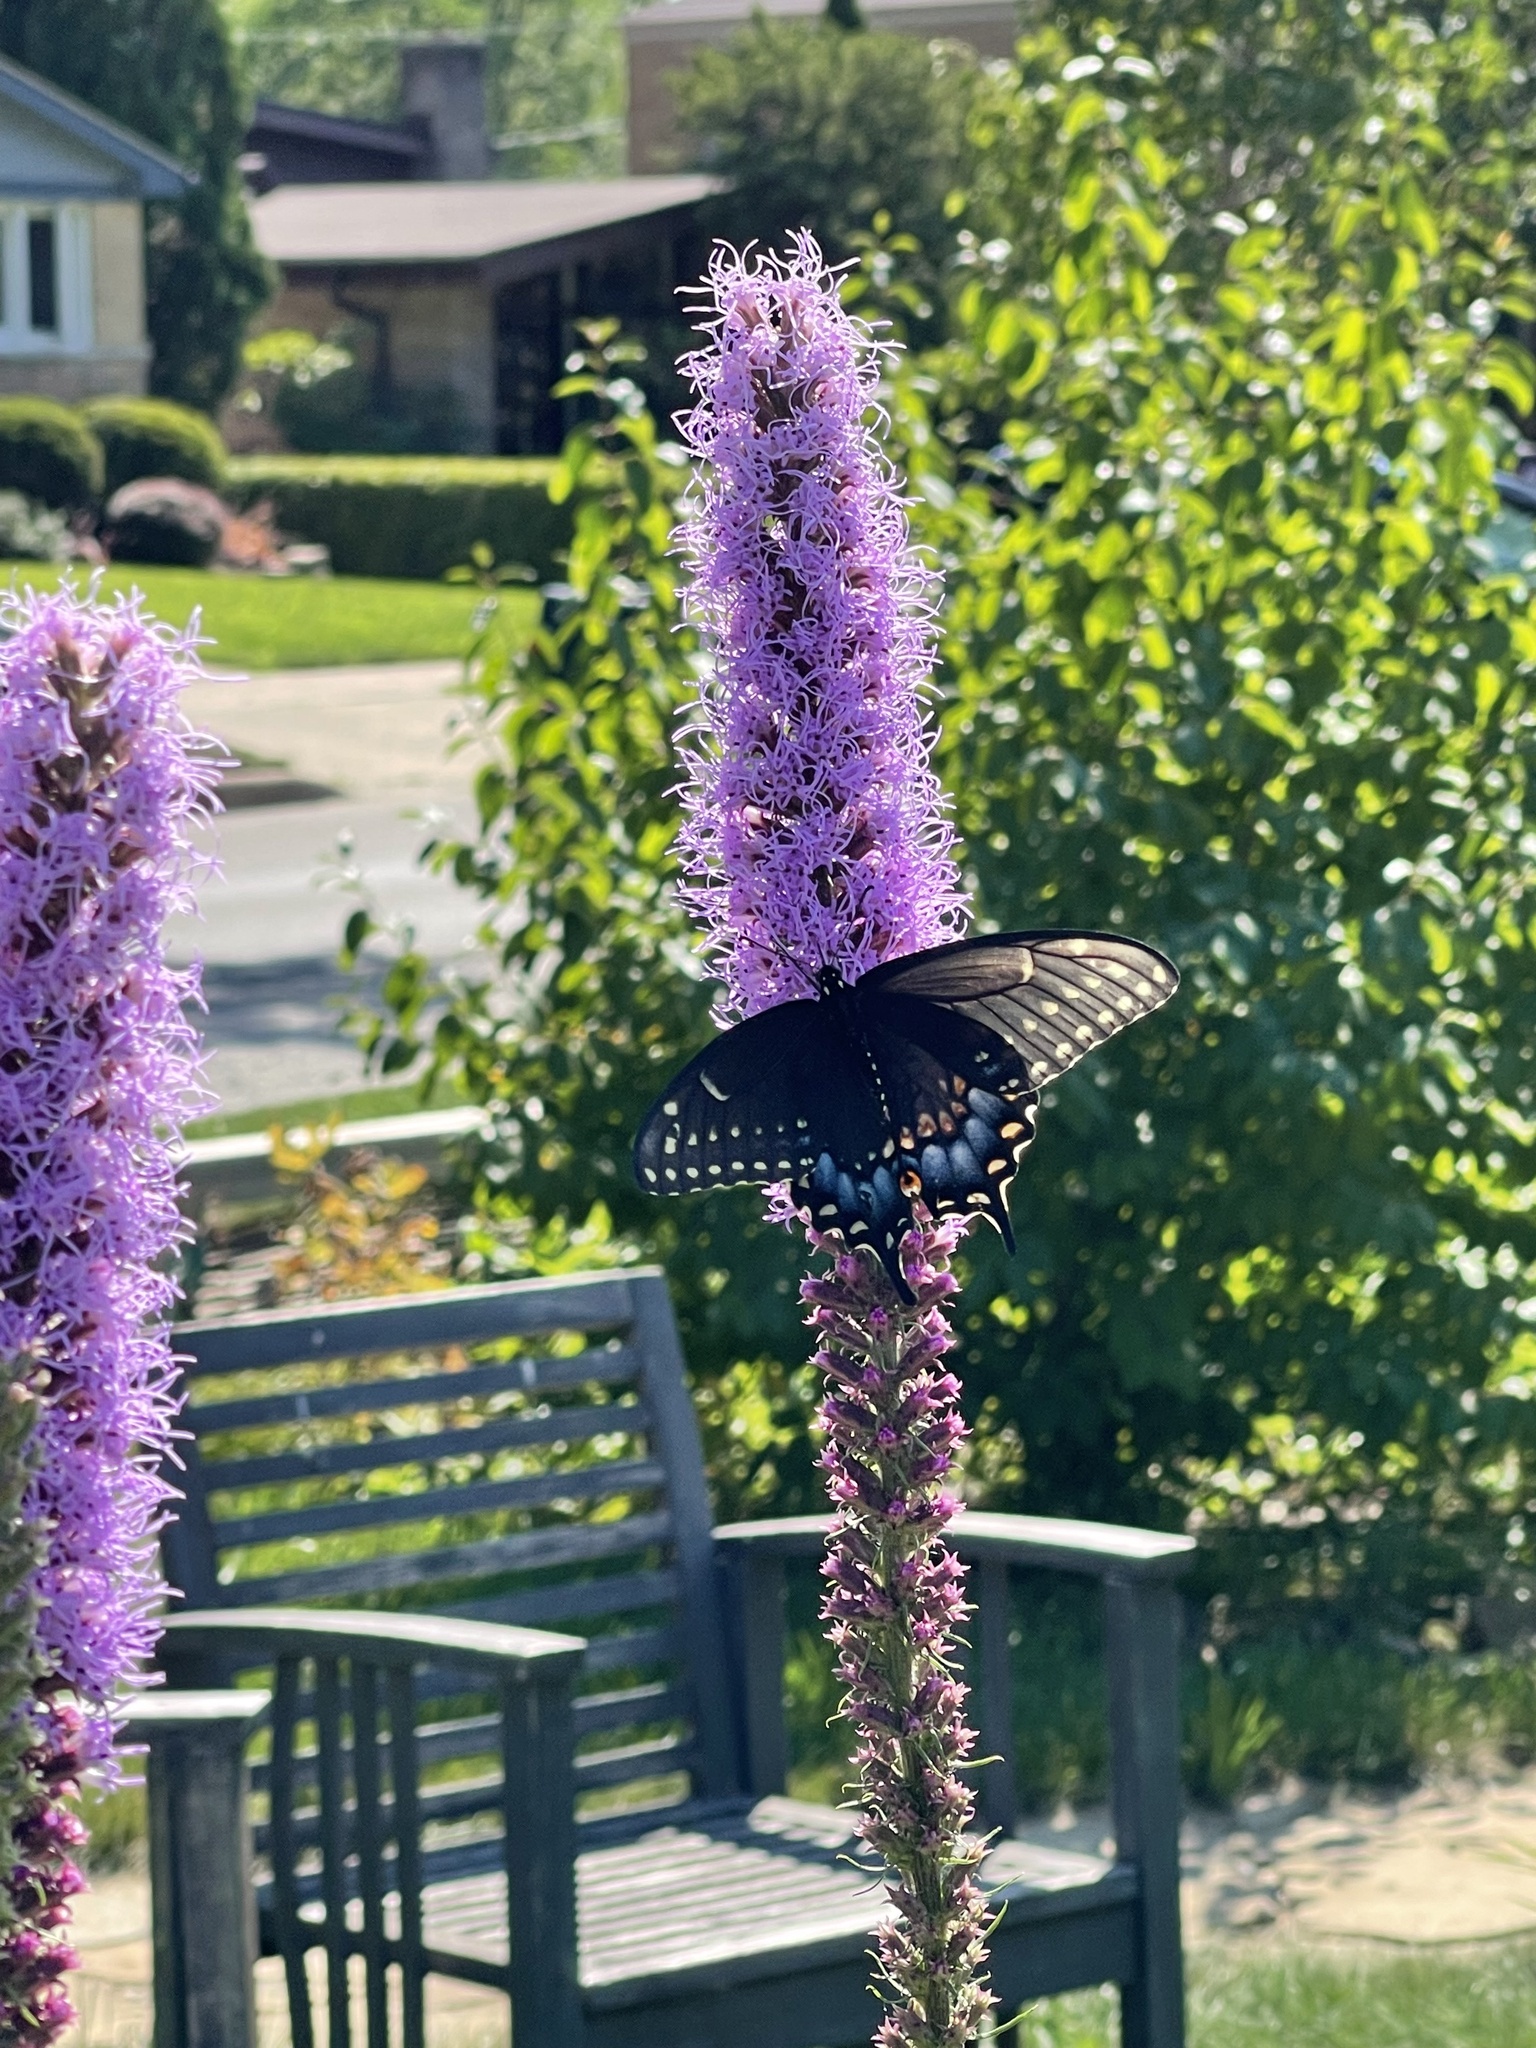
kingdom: Animalia
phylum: Arthropoda
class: Insecta
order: Lepidoptera
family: Papilionidae
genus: Papilio
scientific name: Papilio polyxenes
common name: Black swallowtail
